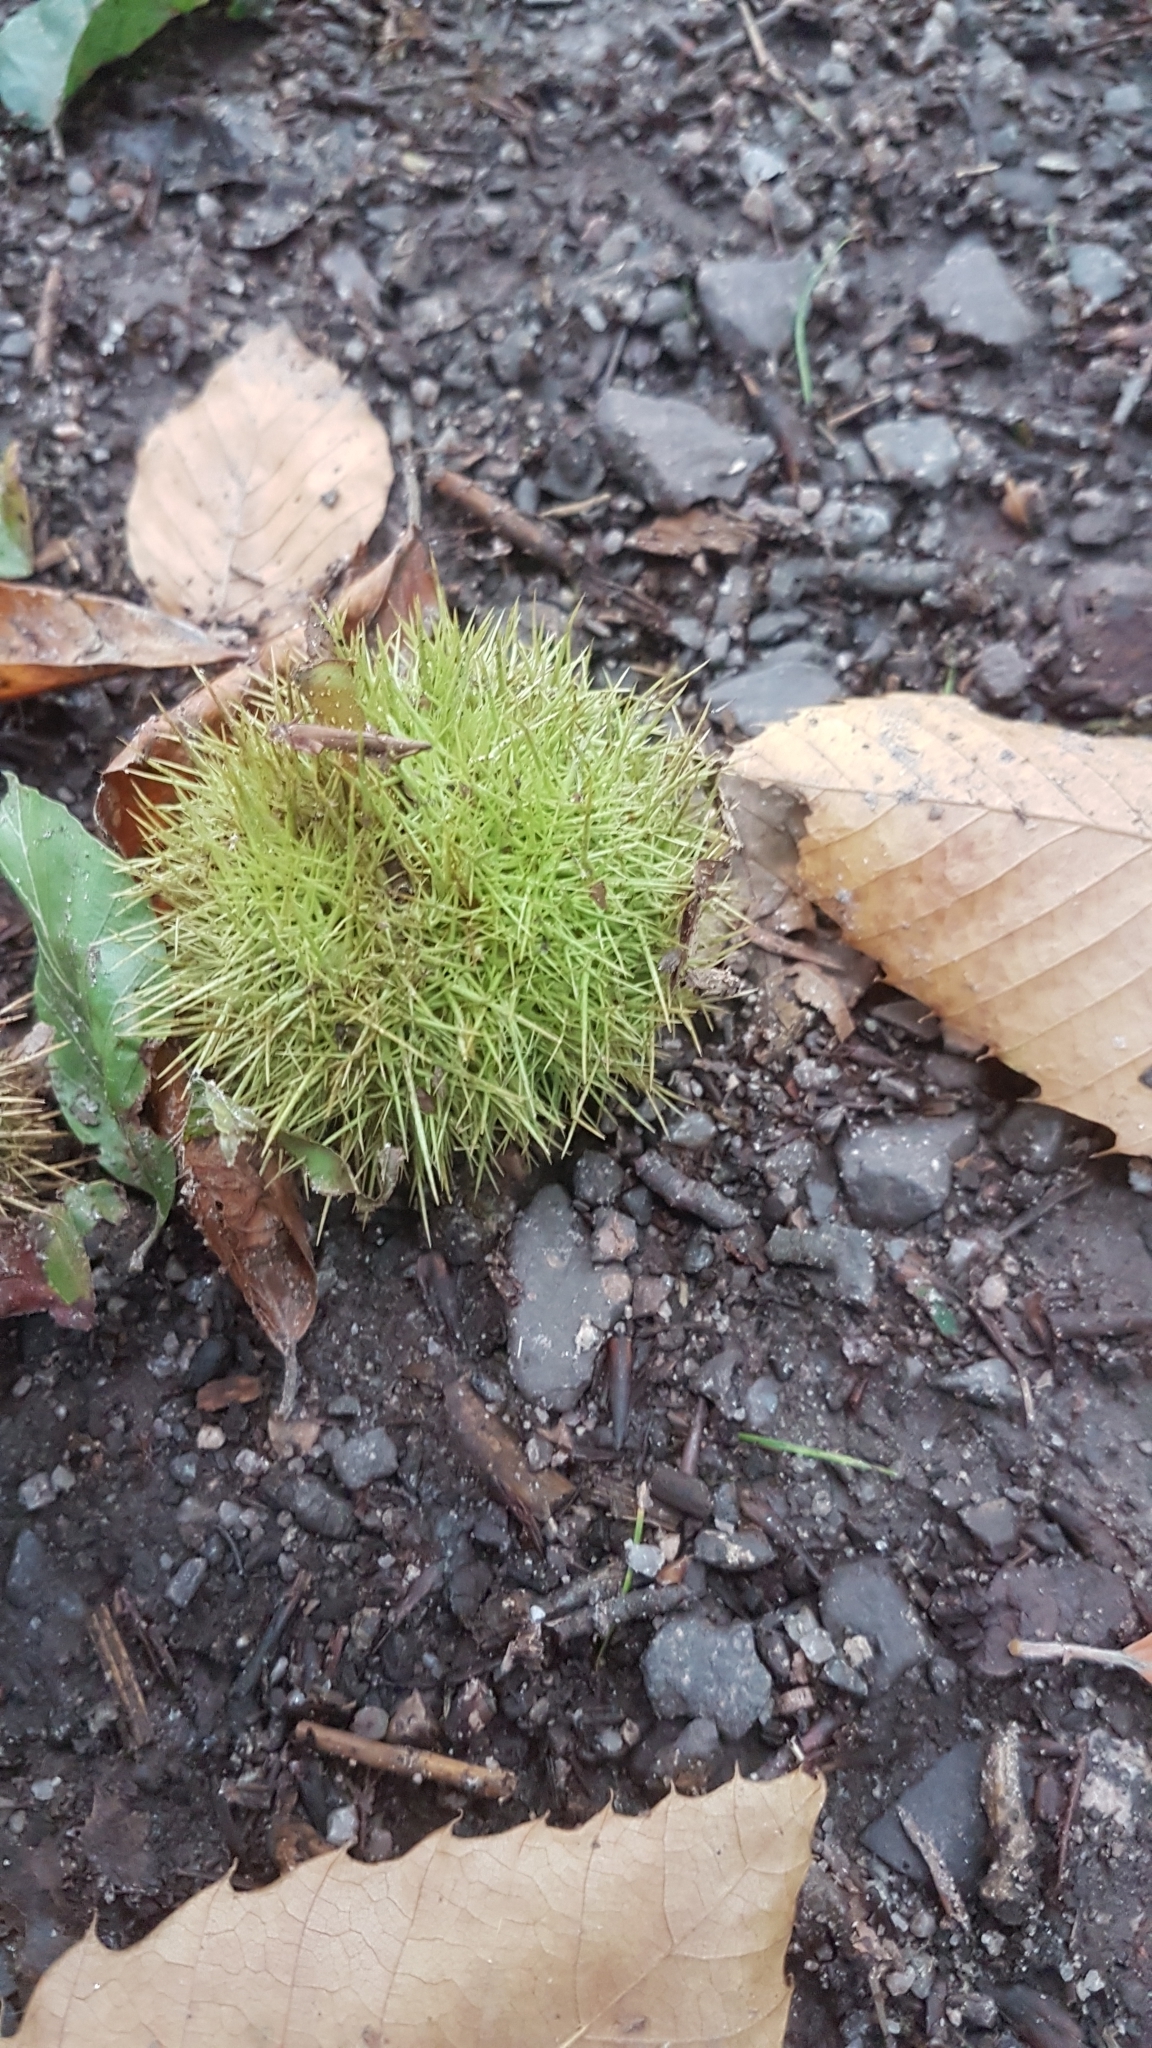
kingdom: Plantae
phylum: Tracheophyta
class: Magnoliopsida
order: Fagales
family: Fagaceae
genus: Castanea
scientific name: Castanea sativa
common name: Sweet chestnut
